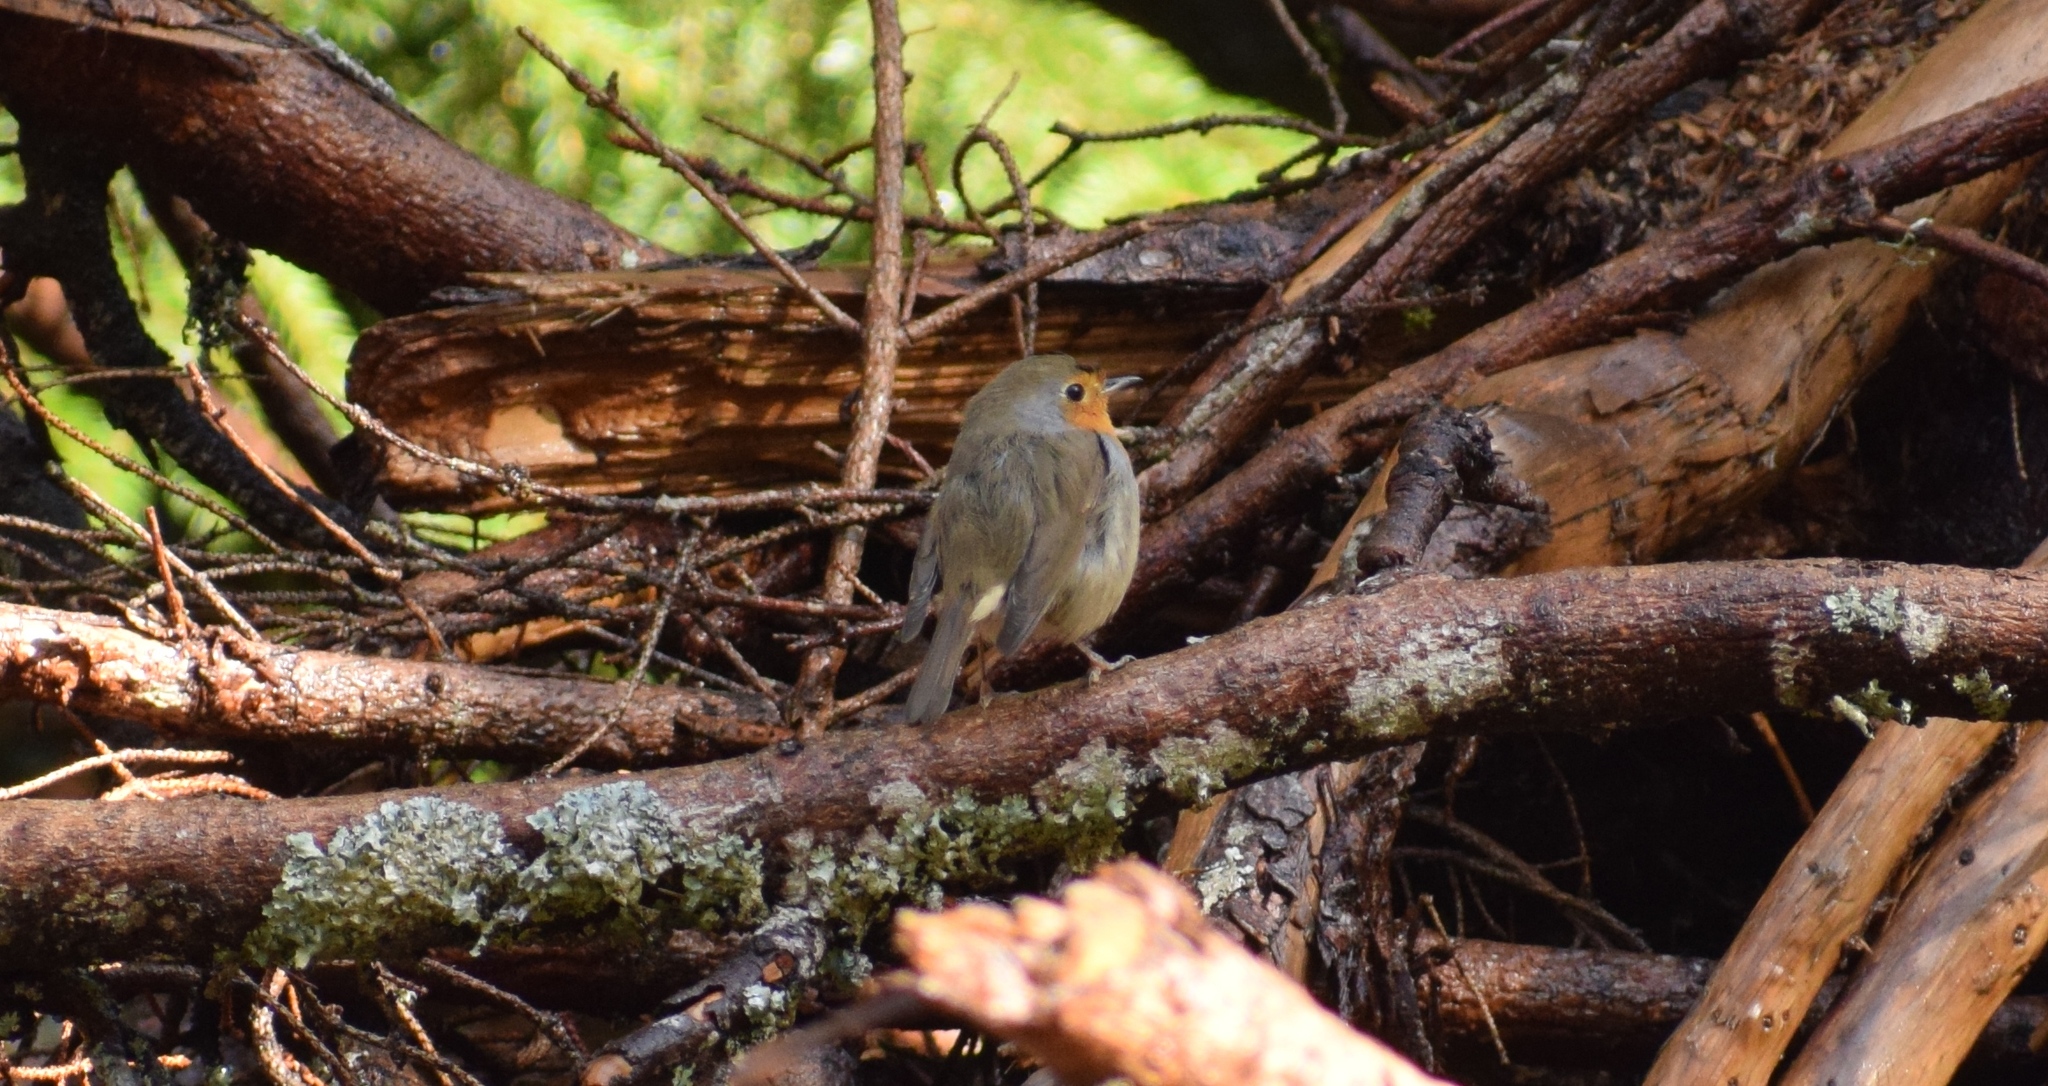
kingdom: Animalia
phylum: Chordata
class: Aves
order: Passeriformes
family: Muscicapidae
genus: Erithacus
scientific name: Erithacus rubecula
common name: European robin
